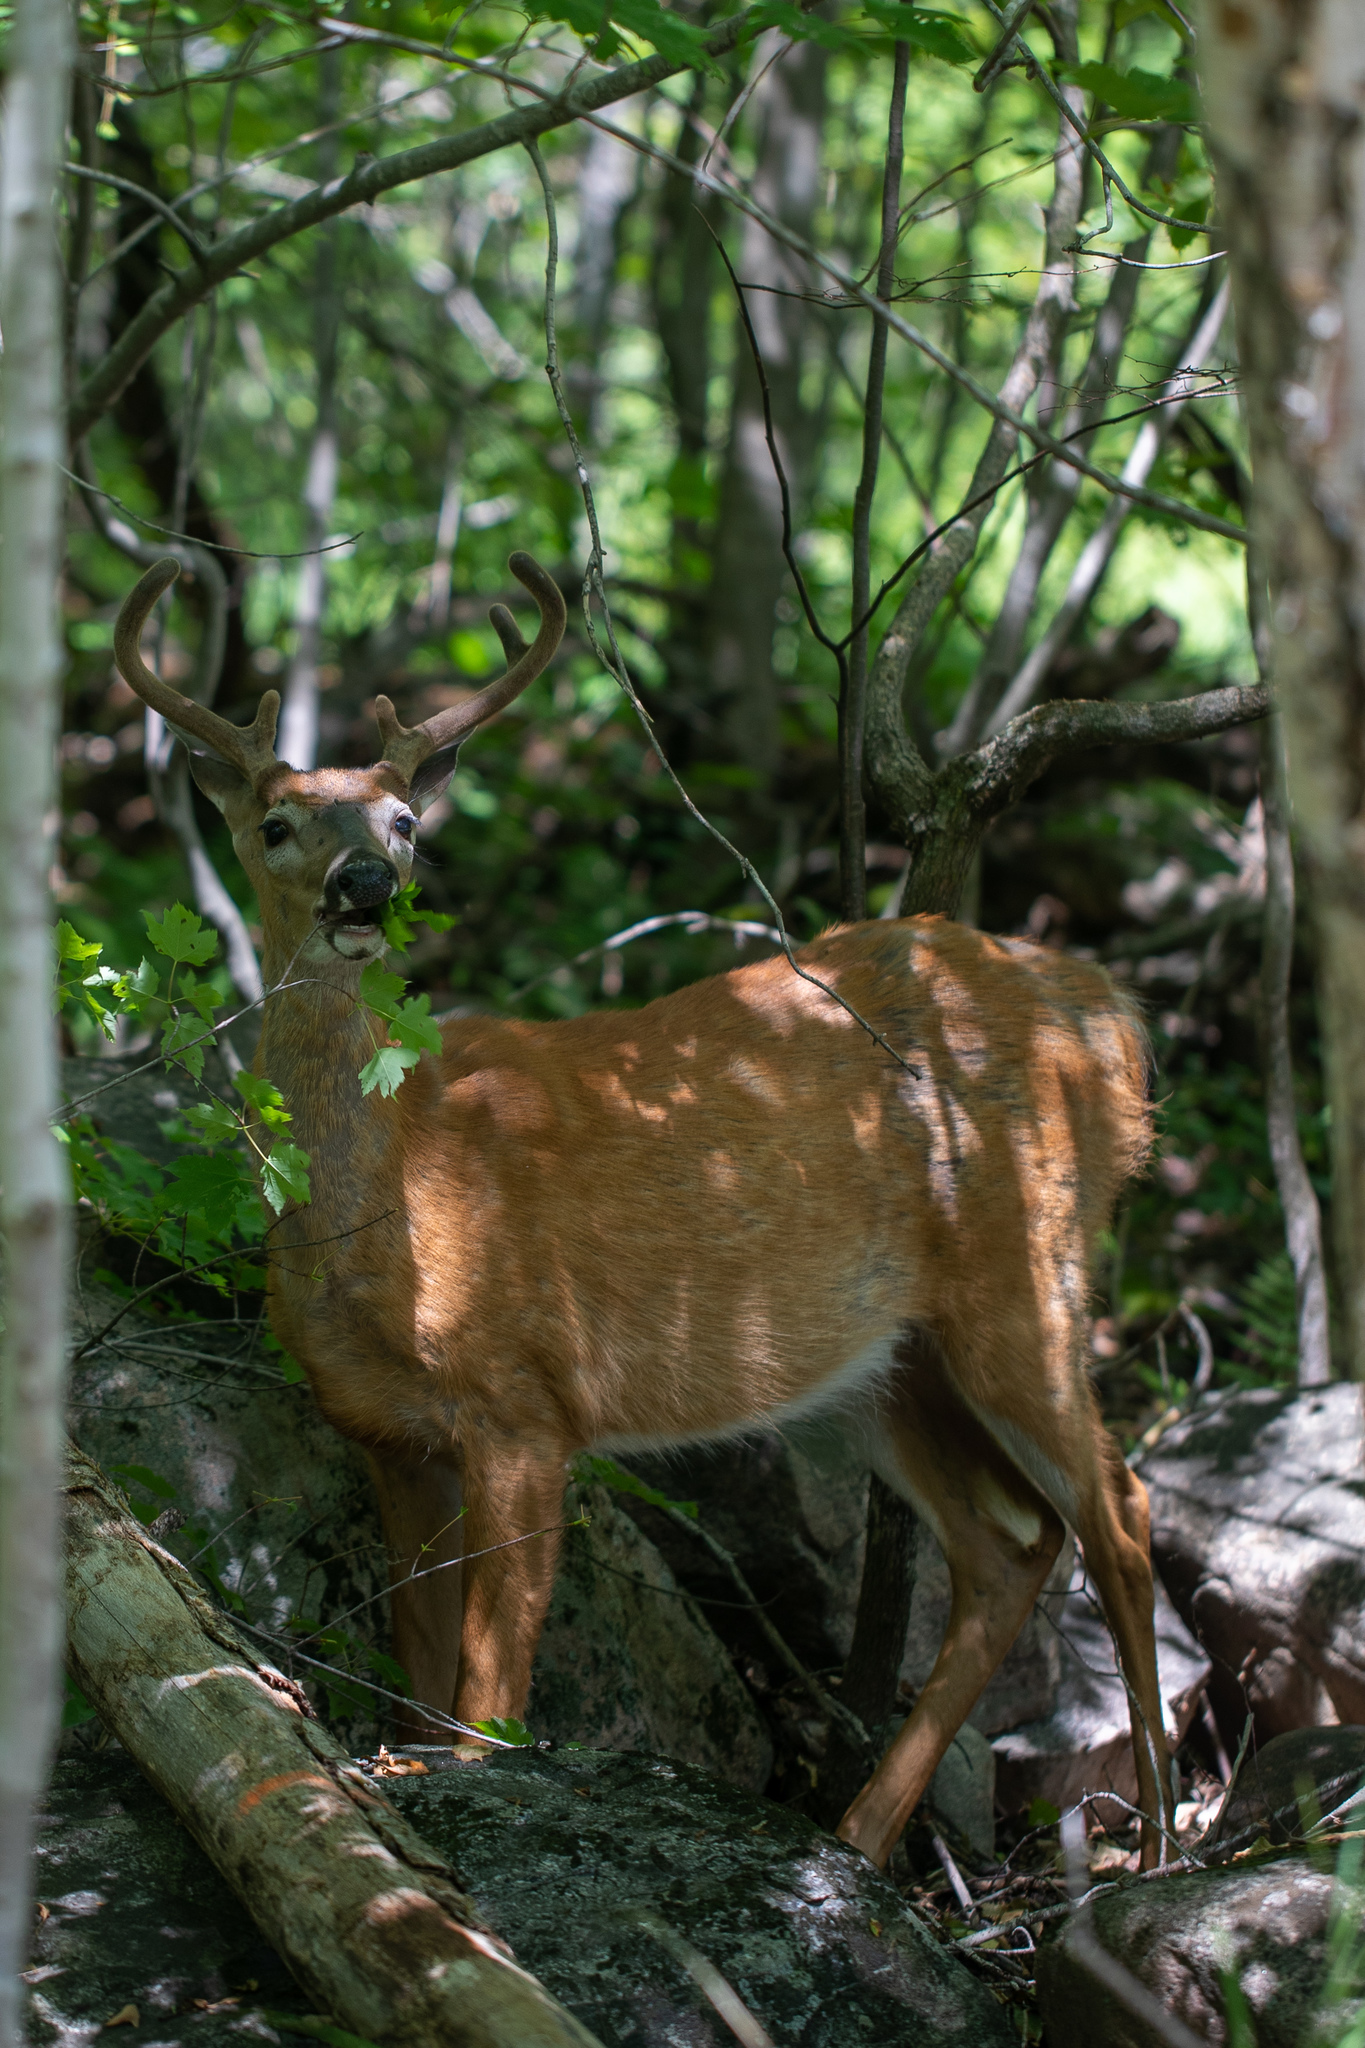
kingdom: Animalia
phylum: Chordata
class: Mammalia
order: Artiodactyla
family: Cervidae
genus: Odocoileus
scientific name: Odocoileus virginianus
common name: White-tailed deer
